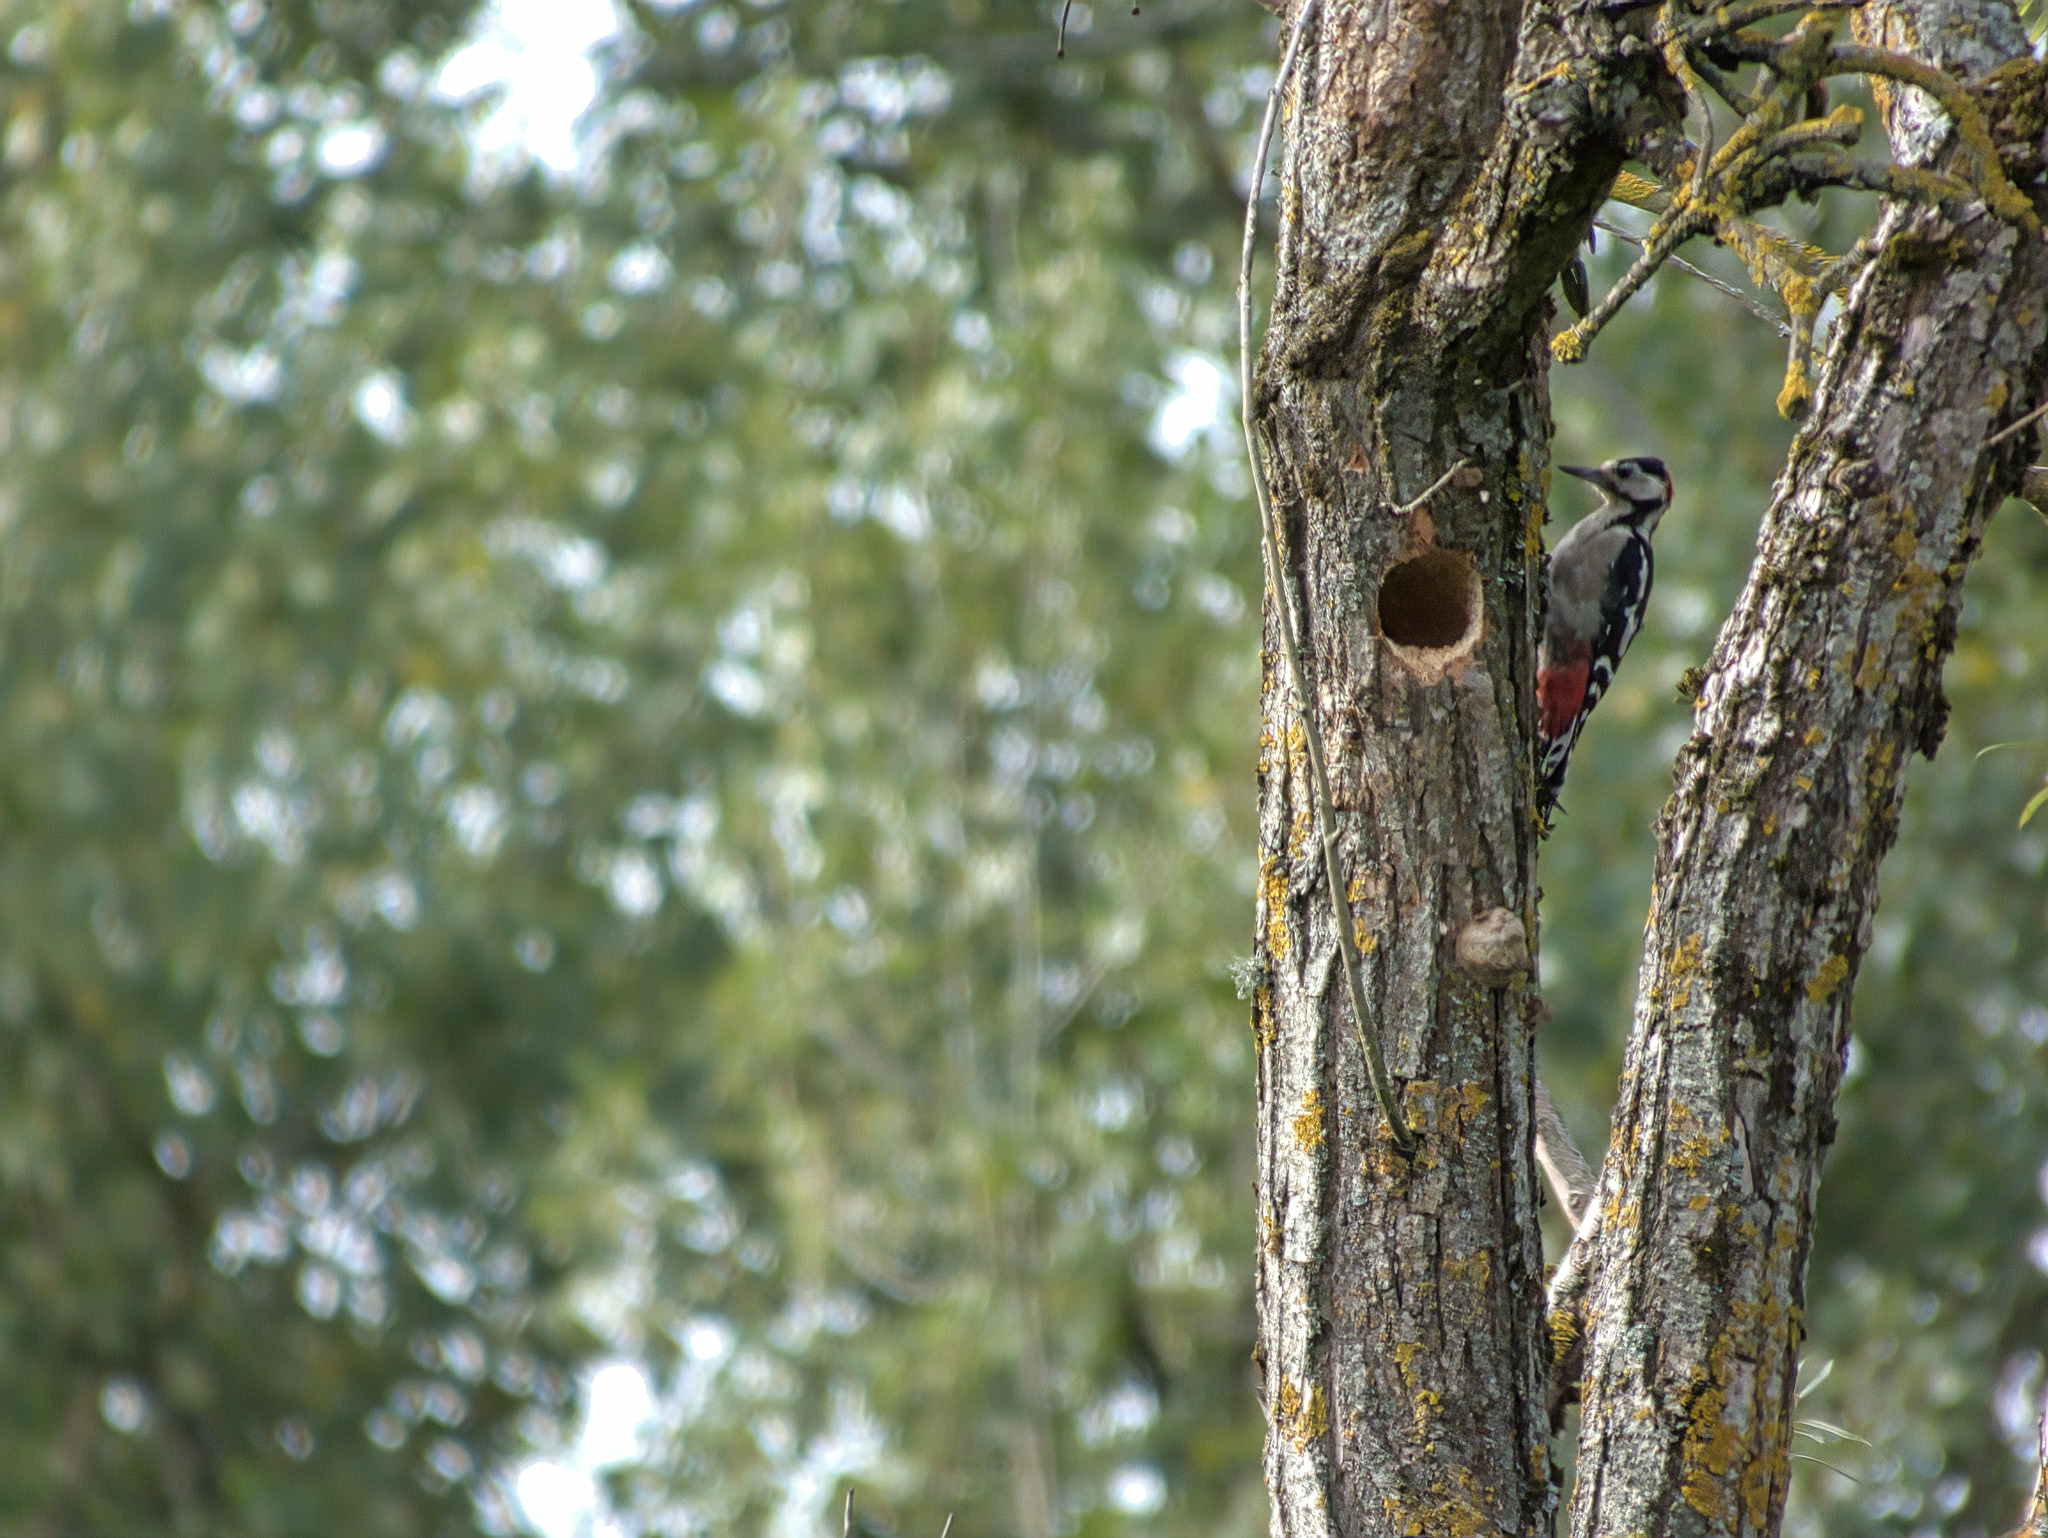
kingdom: Animalia
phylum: Chordata
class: Aves
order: Piciformes
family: Picidae
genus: Dendrocopos
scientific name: Dendrocopos major
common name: Great spotted woodpecker
